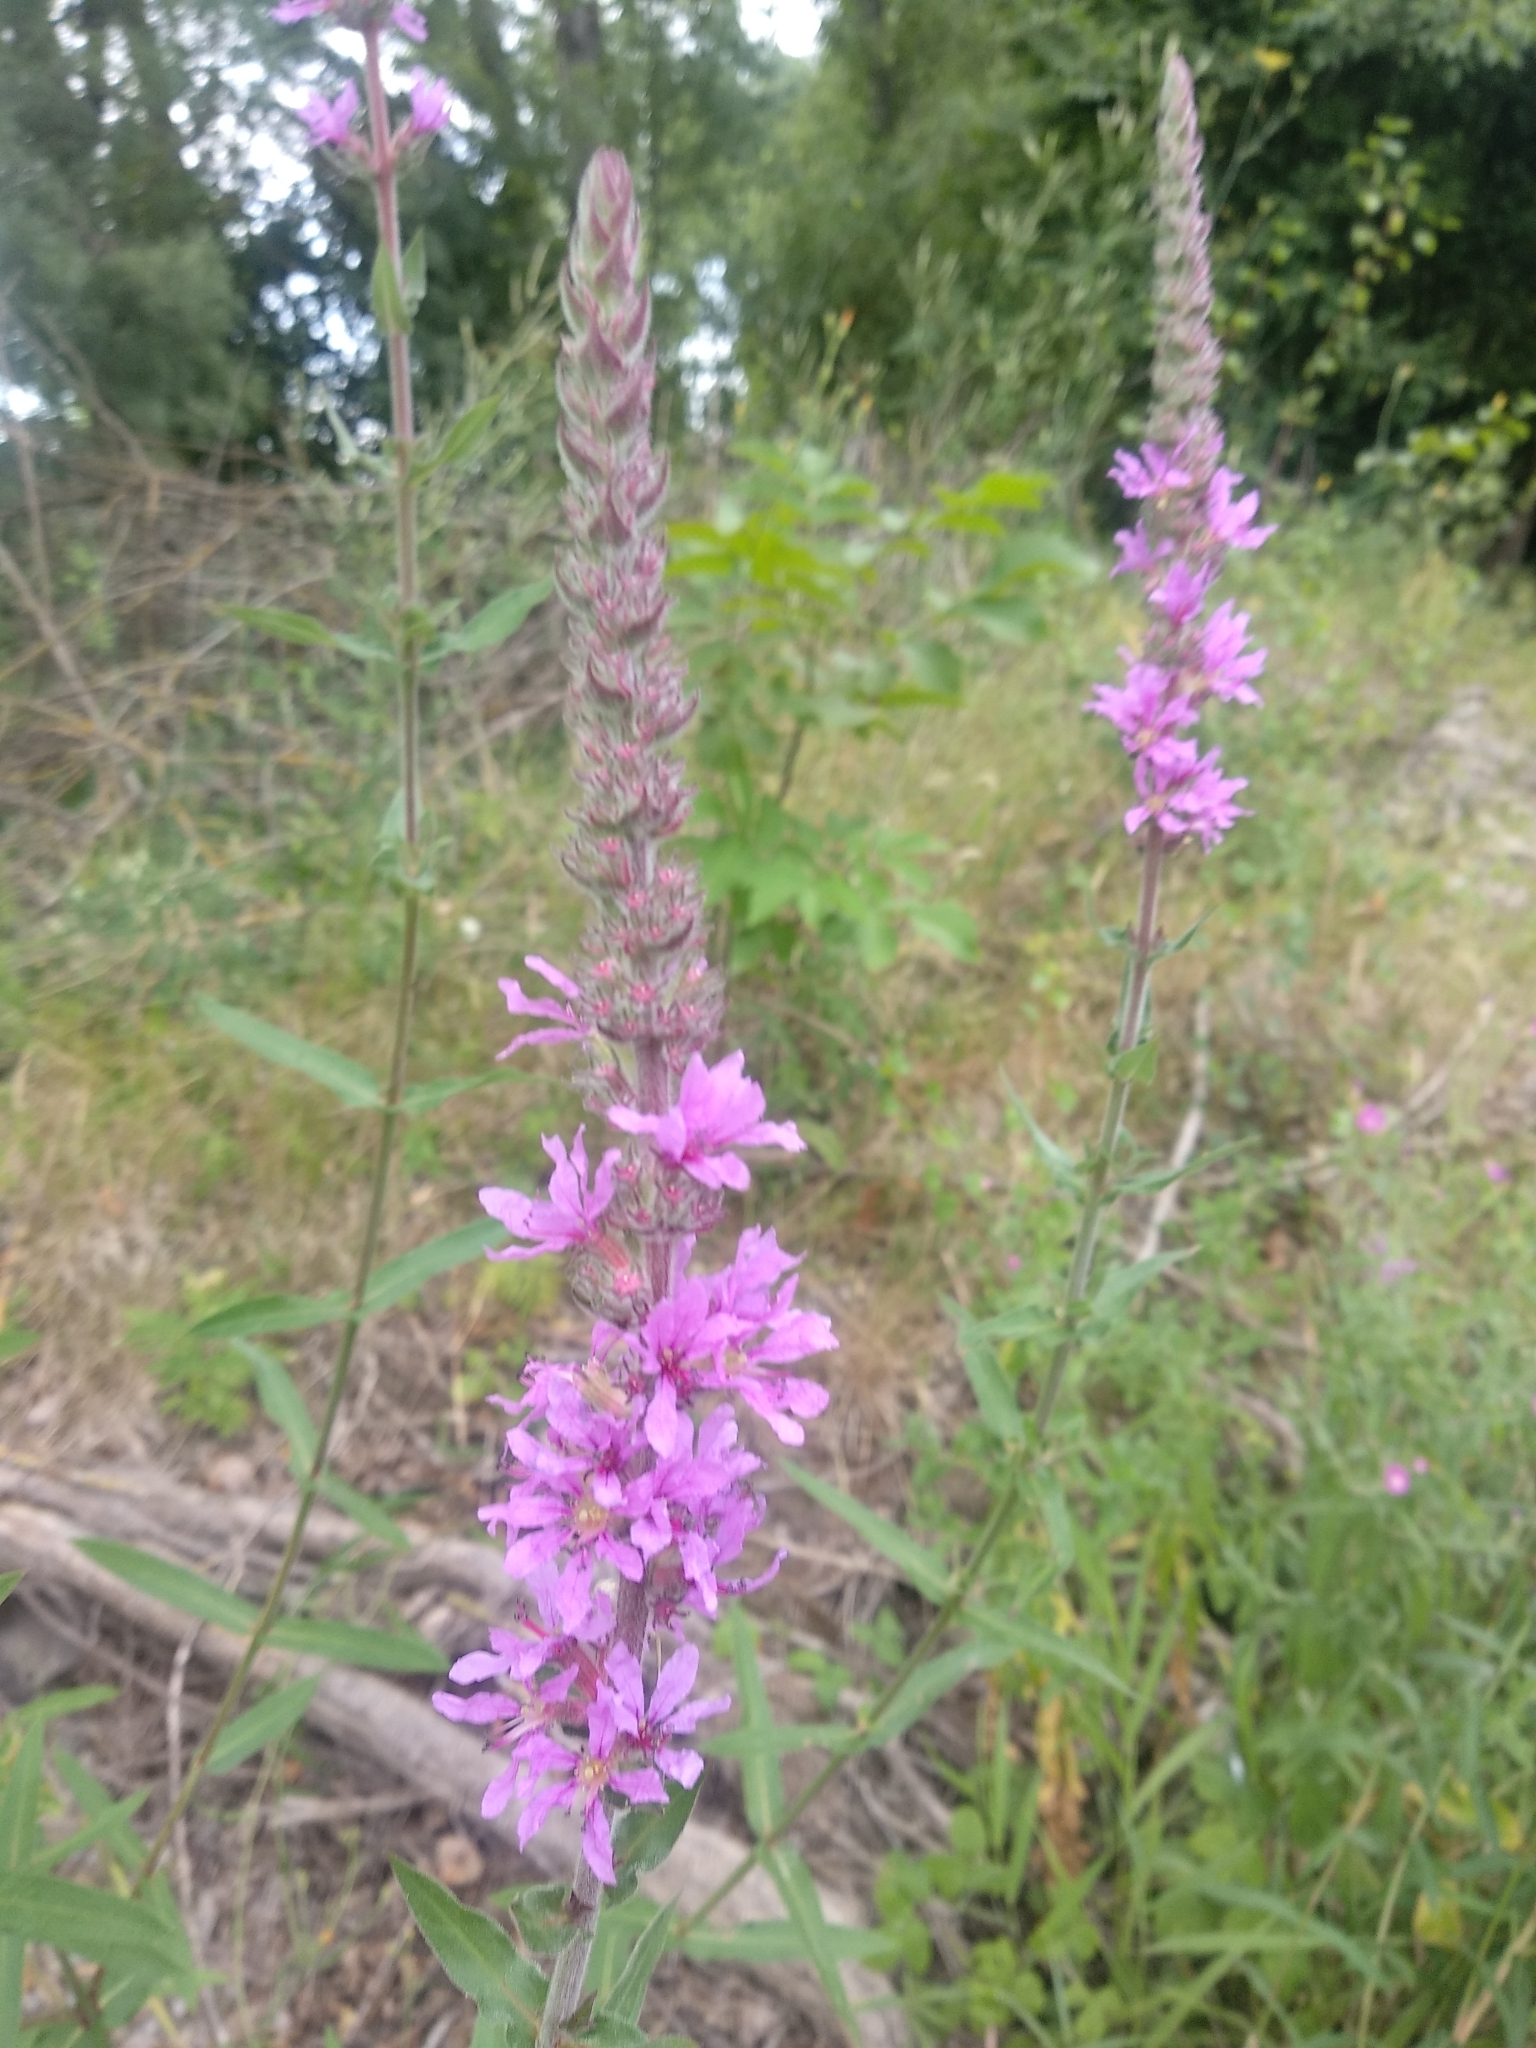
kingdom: Plantae
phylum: Tracheophyta
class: Magnoliopsida
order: Myrtales
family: Lythraceae
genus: Lythrum
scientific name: Lythrum salicaria
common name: Purple loosestrife
